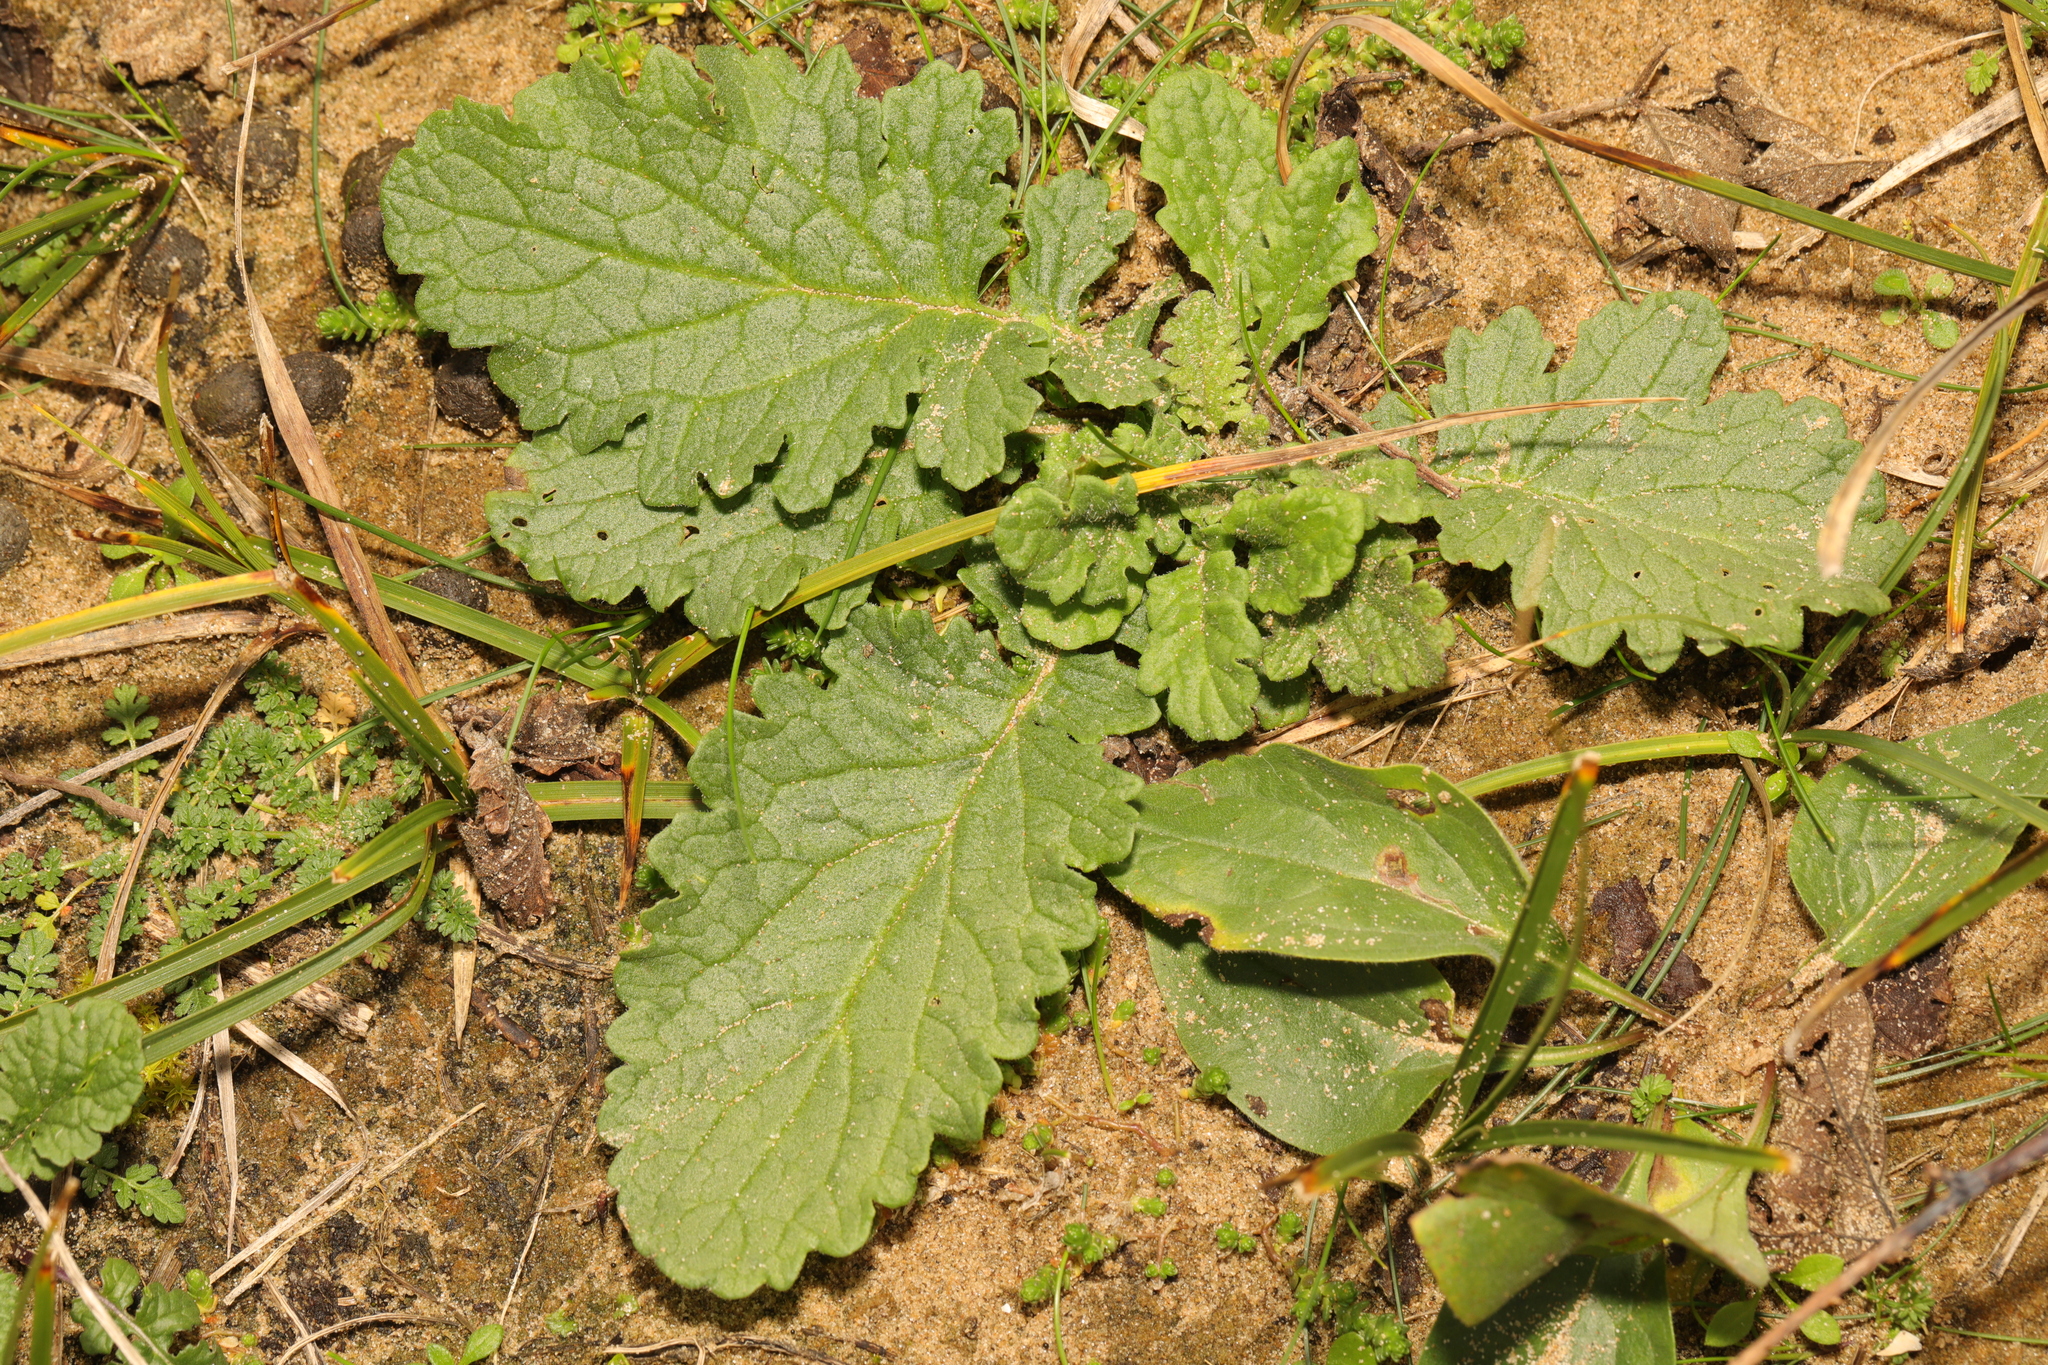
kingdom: Plantae
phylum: Tracheophyta
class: Magnoliopsida
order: Asterales
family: Asteraceae
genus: Jacobaea
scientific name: Jacobaea vulgaris
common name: Stinking willie
